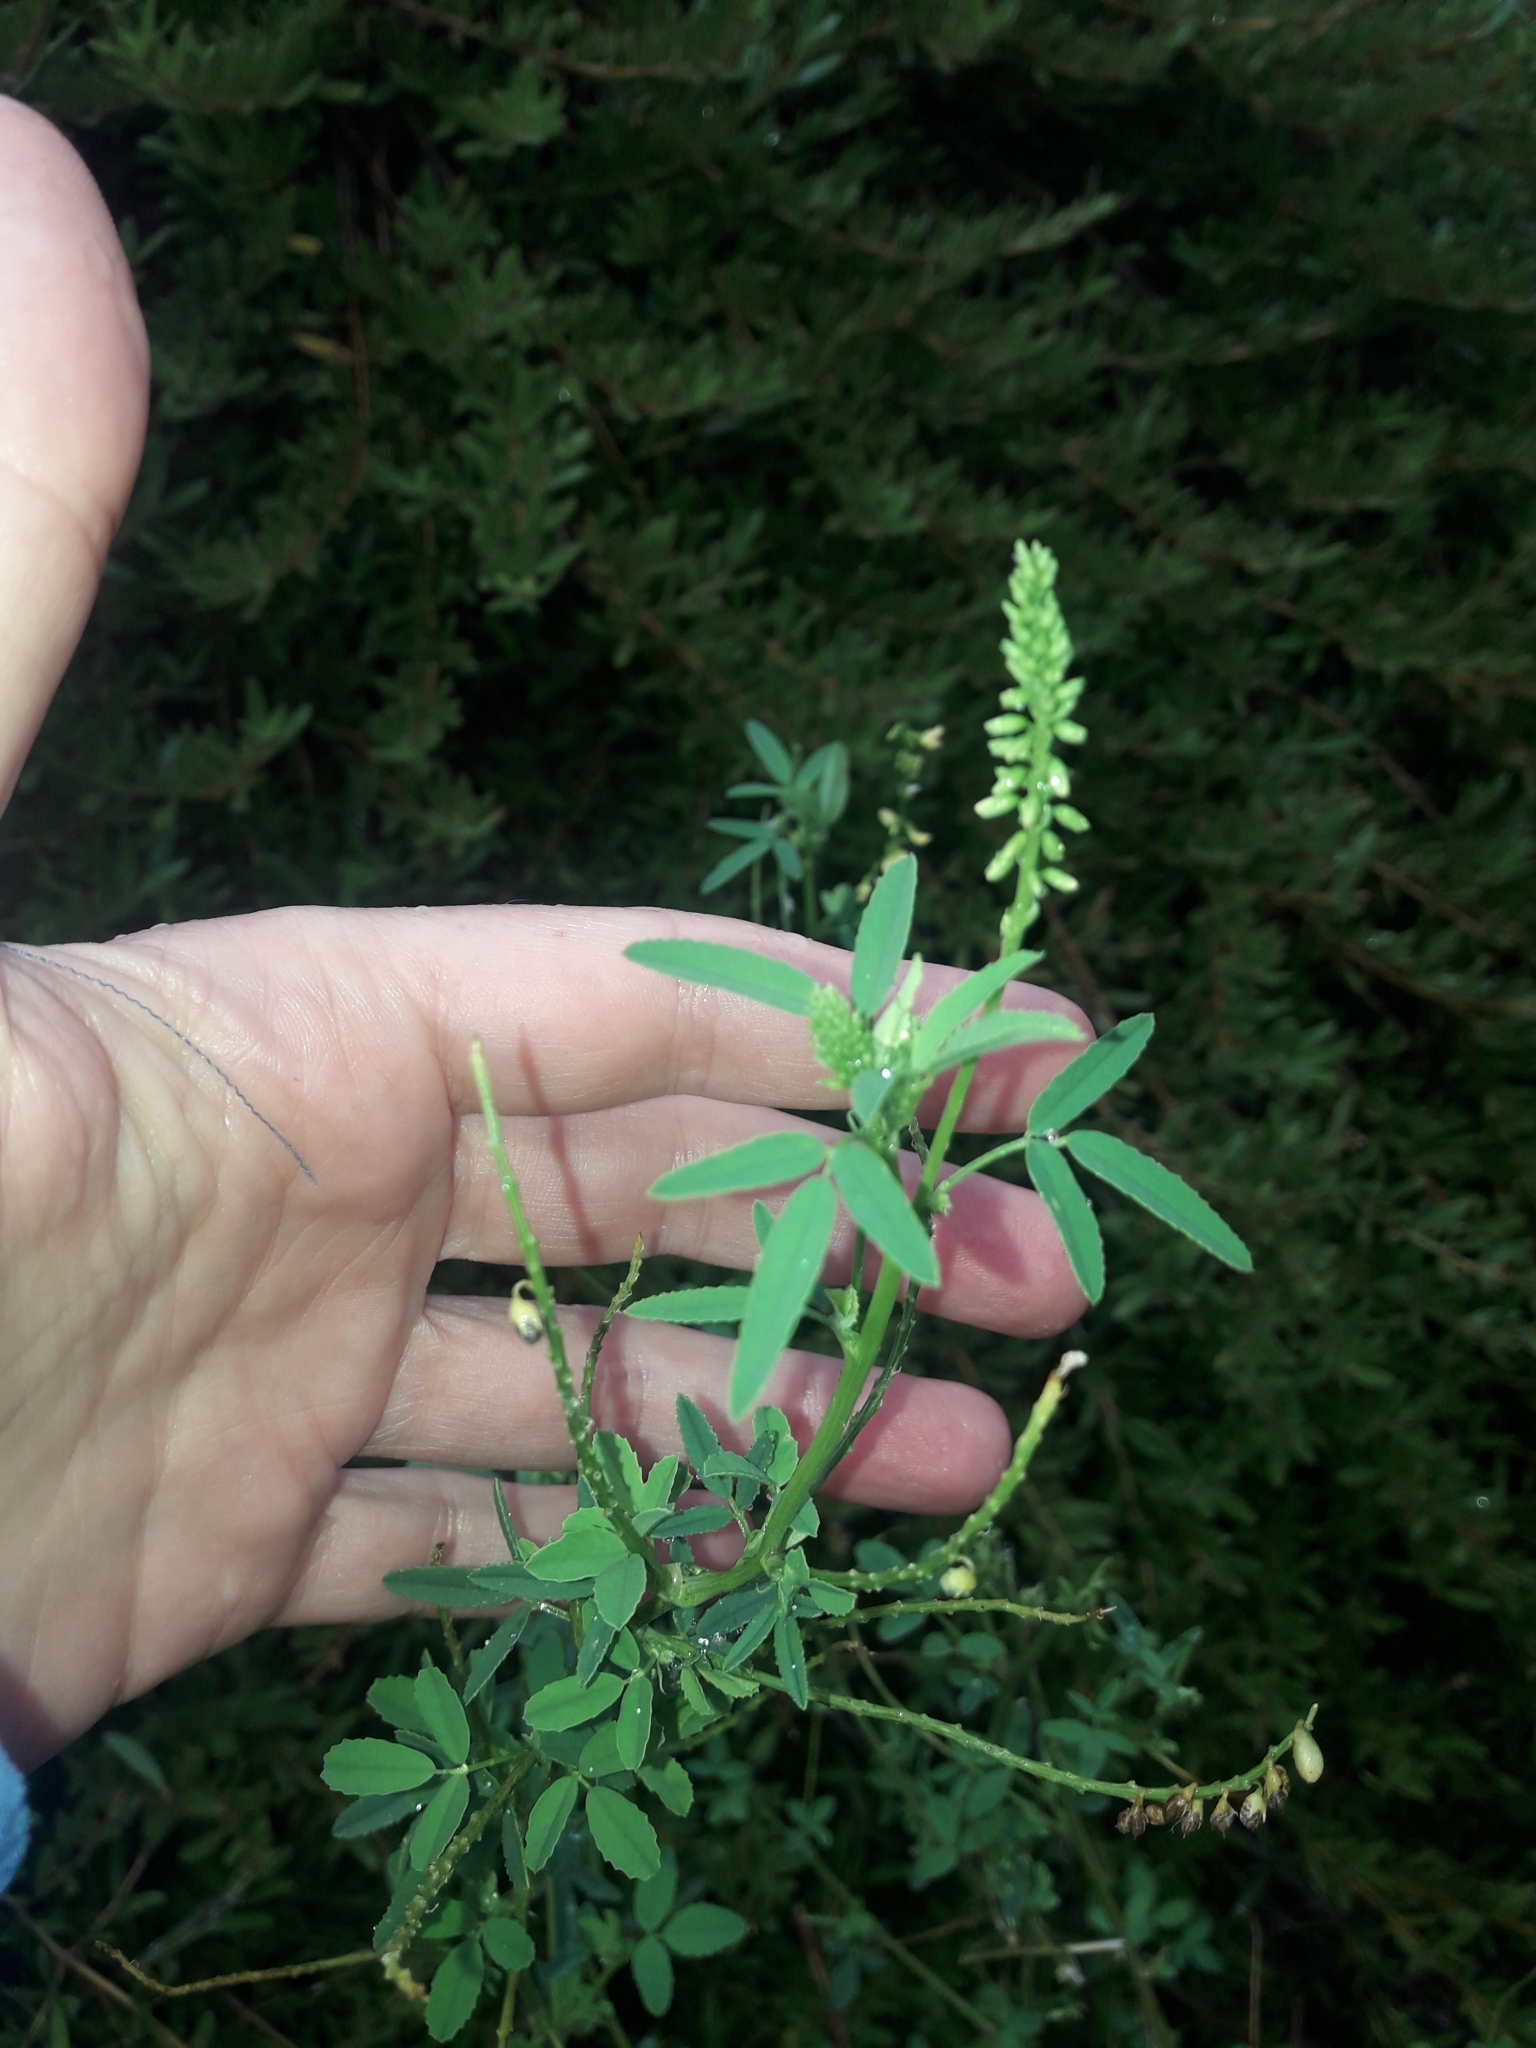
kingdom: Plantae
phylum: Tracheophyta
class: Magnoliopsida
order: Fabales
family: Fabaceae
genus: Melilotus
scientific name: Melilotus albus
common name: White melilot
